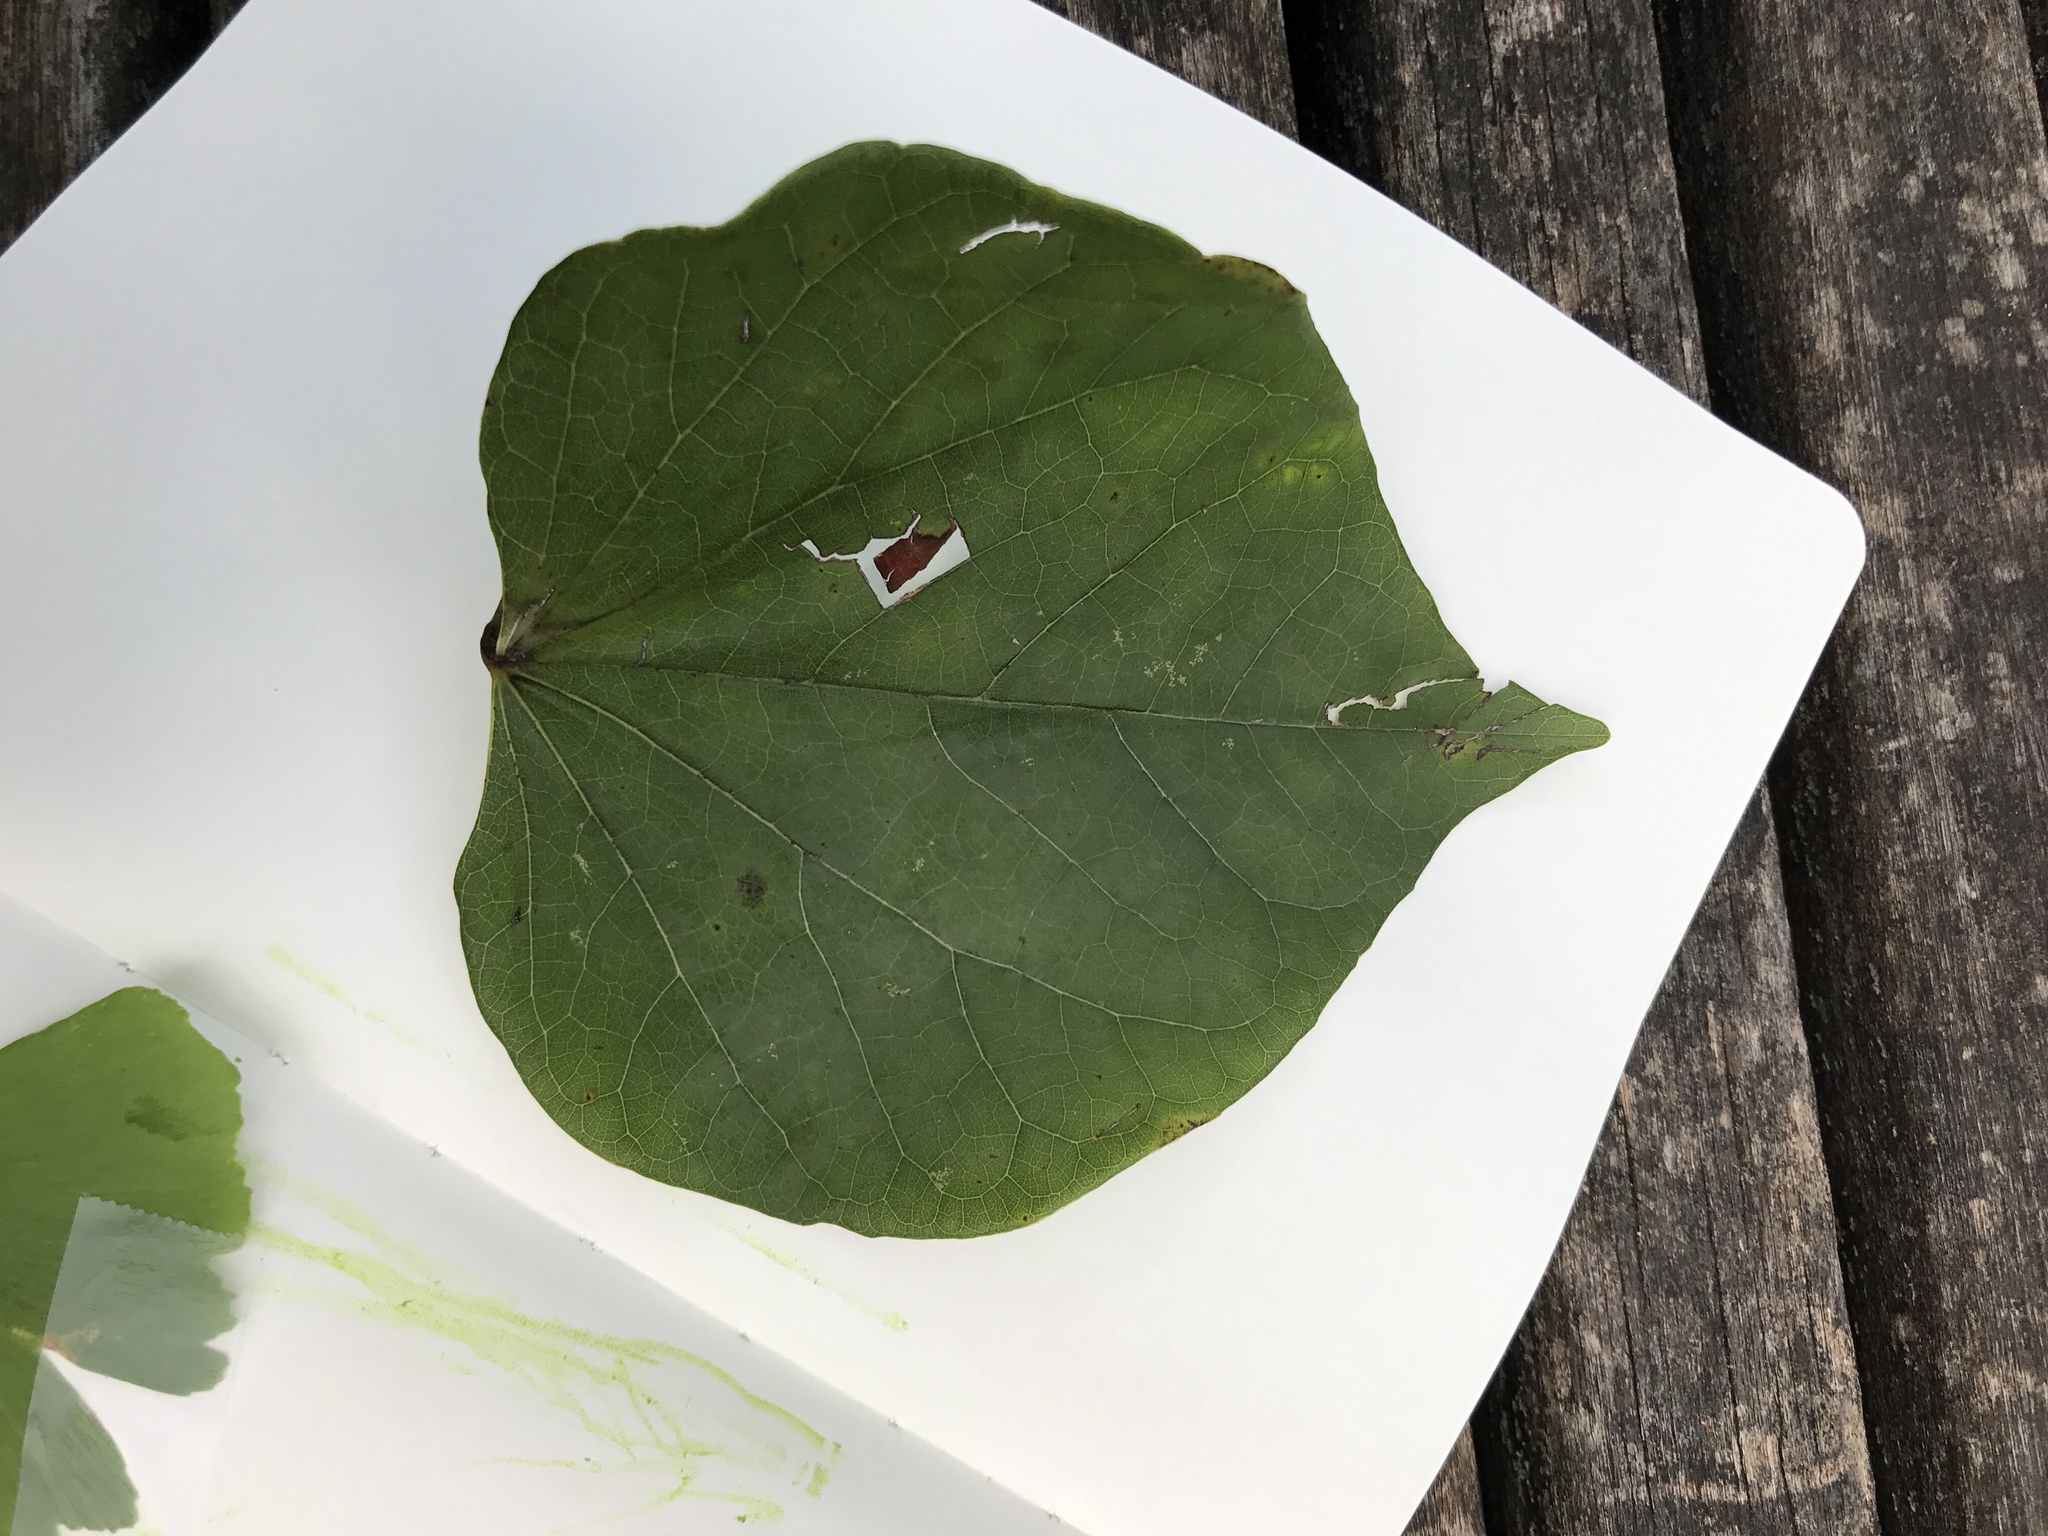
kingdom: Plantae
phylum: Tracheophyta
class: Magnoliopsida
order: Fabales
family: Fabaceae
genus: Cercis
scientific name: Cercis canadensis
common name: Eastern redbud
